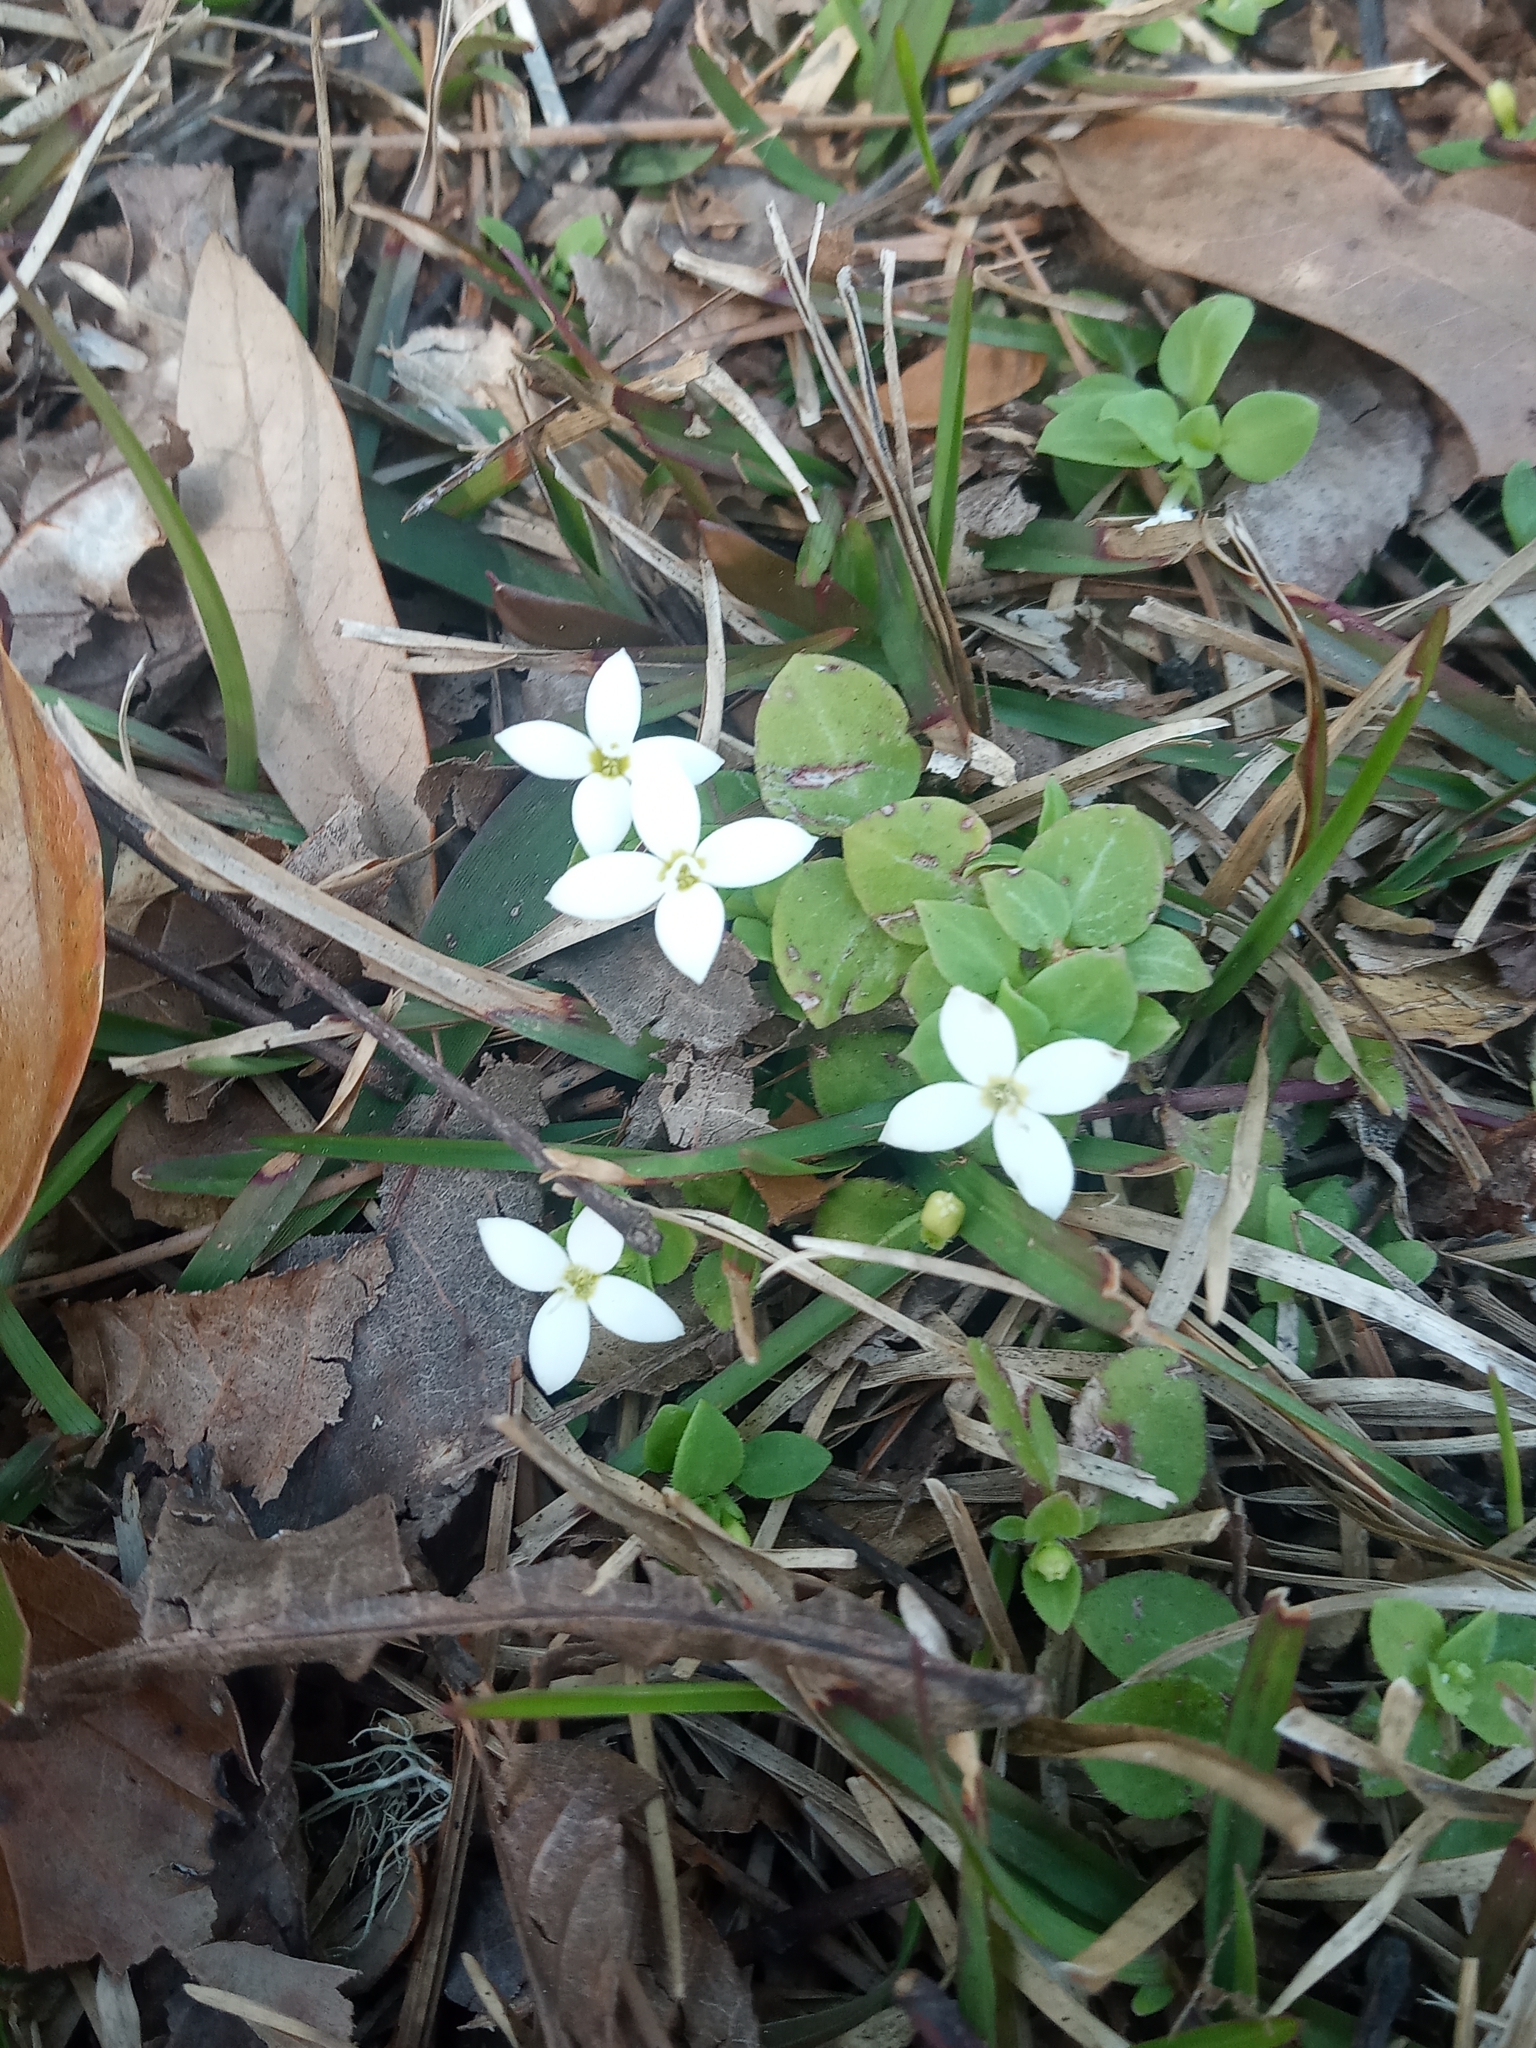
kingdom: Plantae
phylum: Tracheophyta
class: Magnoliopsida
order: Gentianales
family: Rubiaceae
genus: Houstonia
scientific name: Houstonia procumbens
